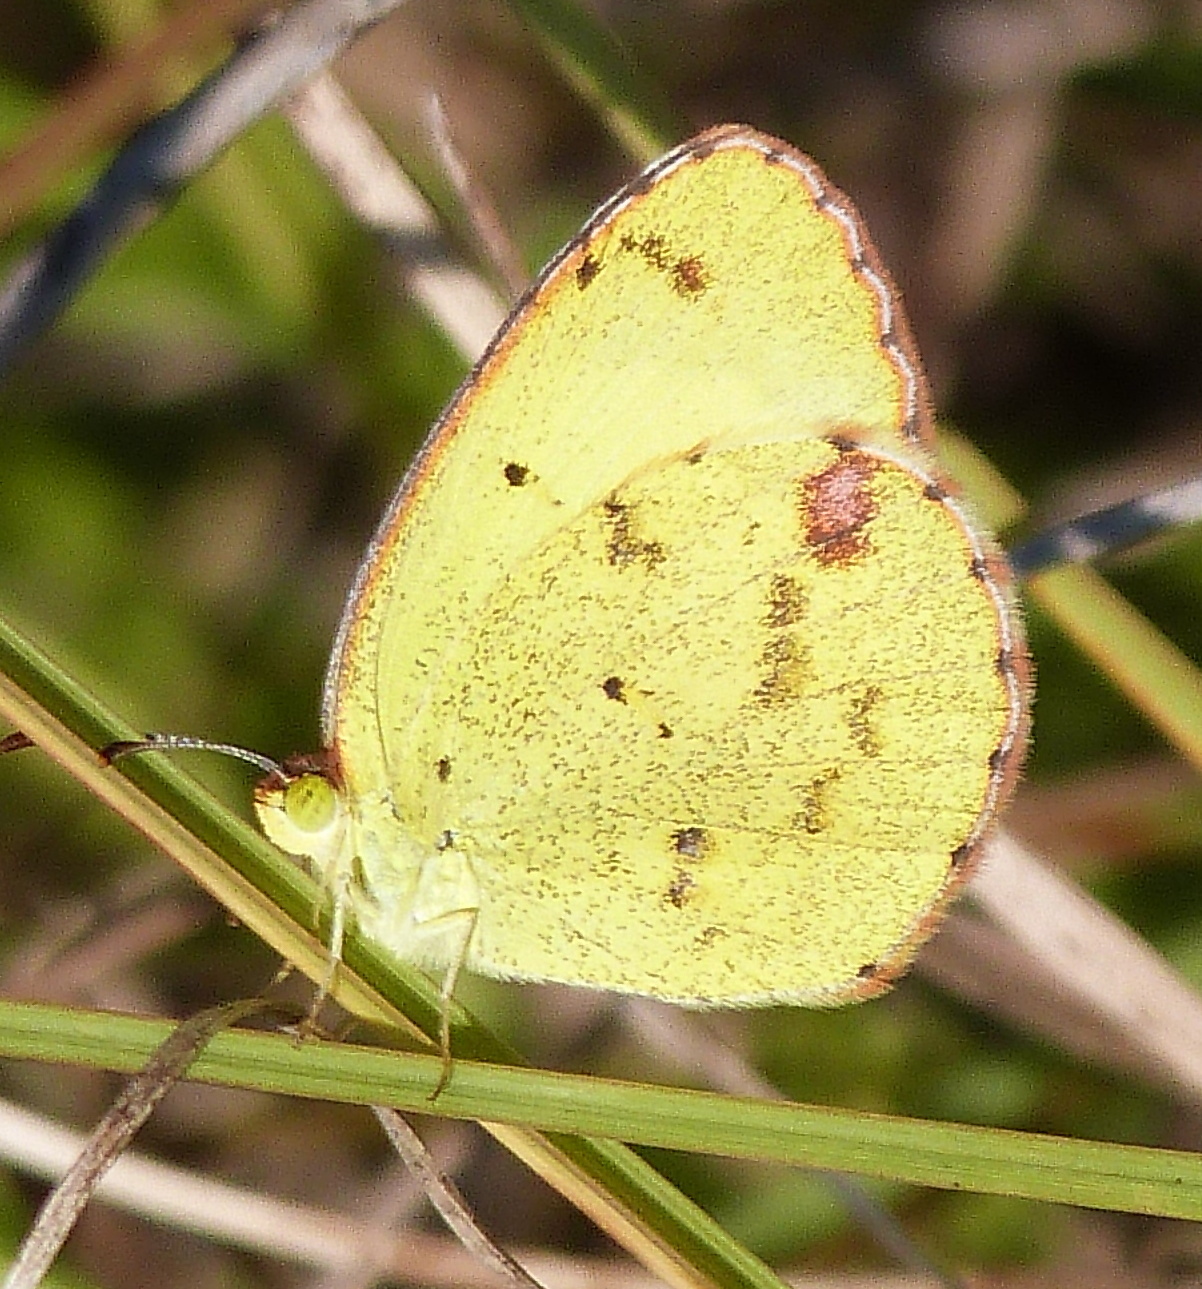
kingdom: Animalia
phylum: Arthropoda
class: Insecta
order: Lepidoptera
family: Pieridae
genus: Pyrisitia
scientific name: Pyrisitia lisa
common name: Little yellow
